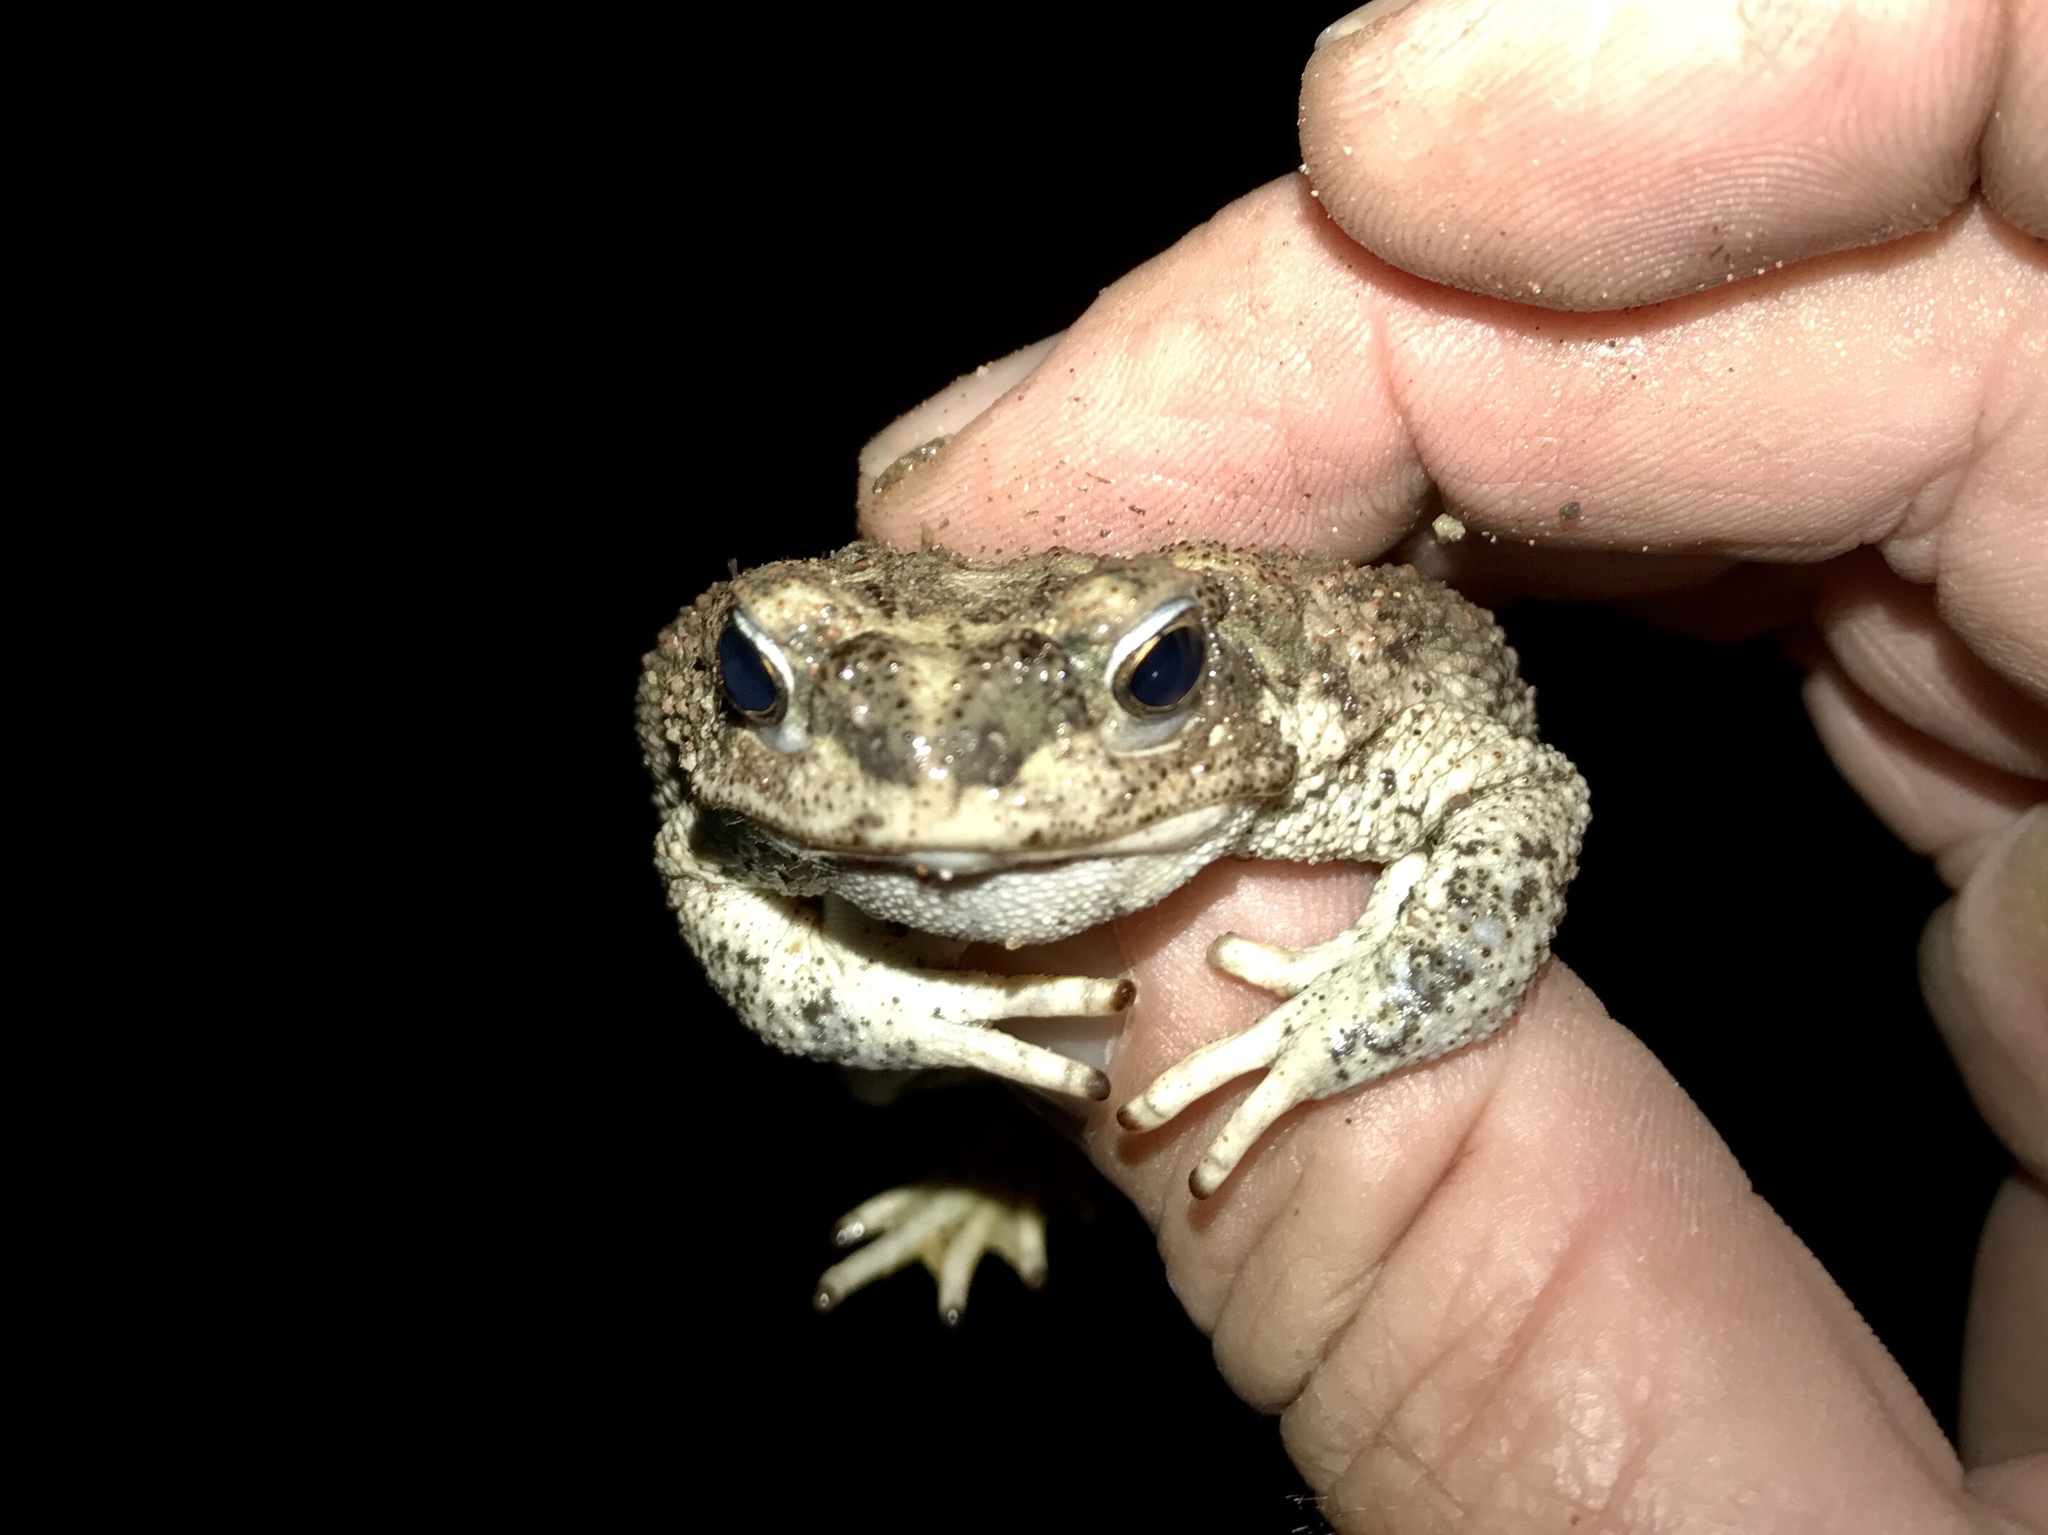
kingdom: Animalia
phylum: Chordata
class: Amphibia
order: Anura
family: Bufonidae
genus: Anaxyrus
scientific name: Anaxyrus punctatus
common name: Red-spotted toad
